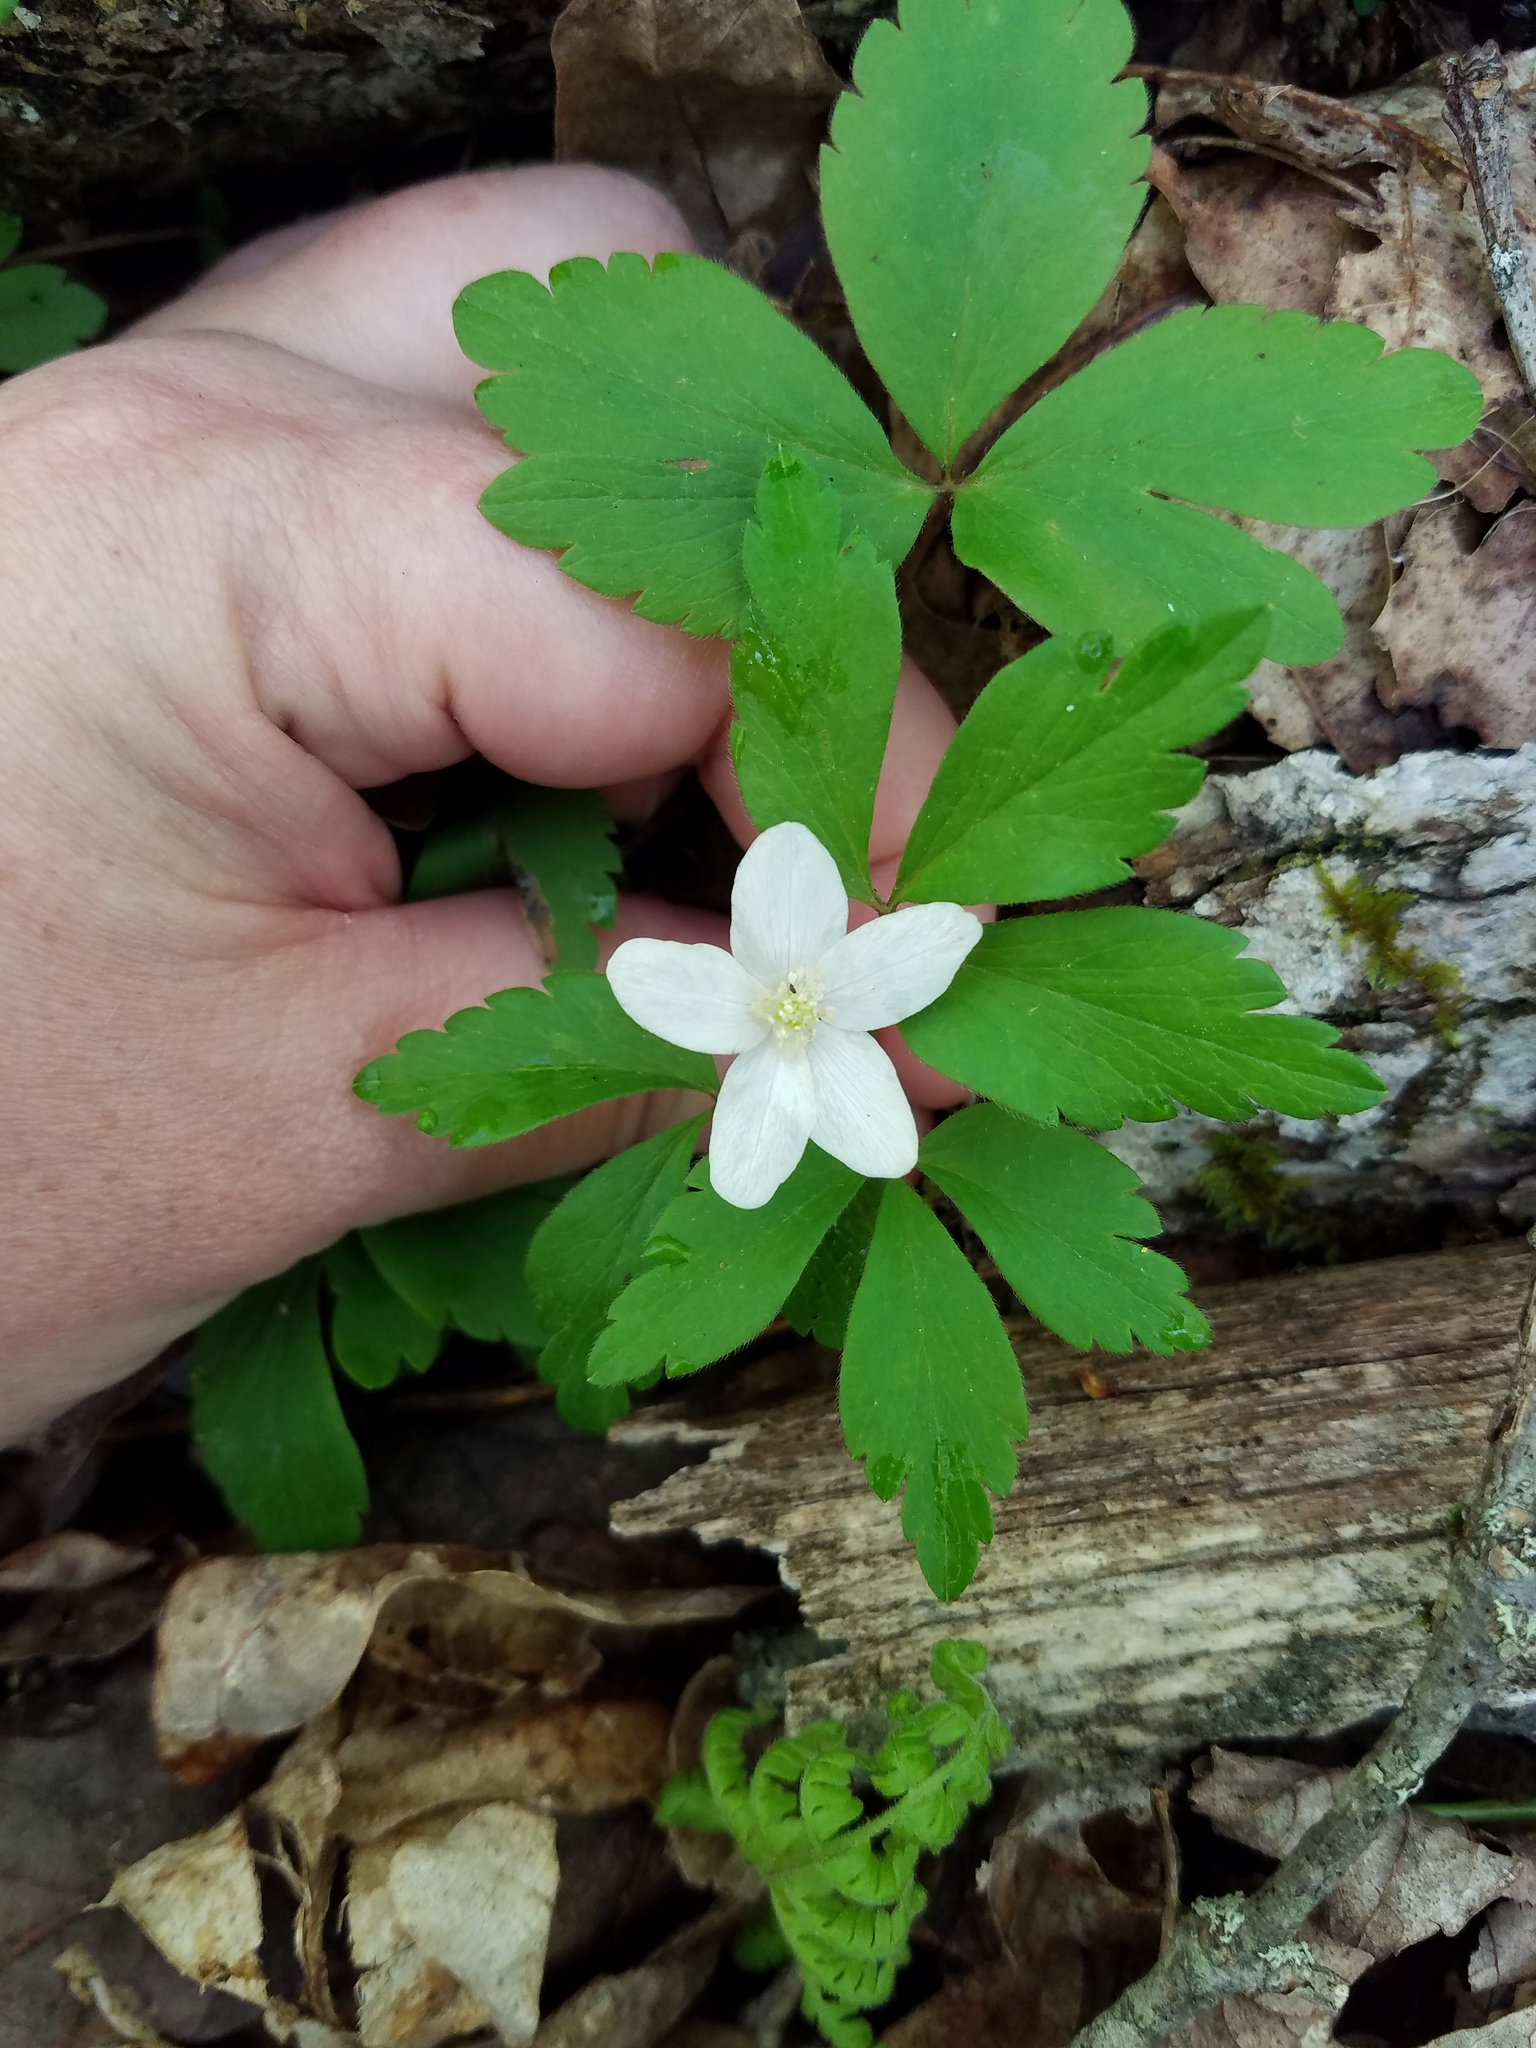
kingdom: Plantae
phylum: Tracheophyta
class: Magnoliopsida
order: Ranunculales
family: Ranunculaceae
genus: Anemone
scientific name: Anemone quinquefolia
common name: Wood anemone
